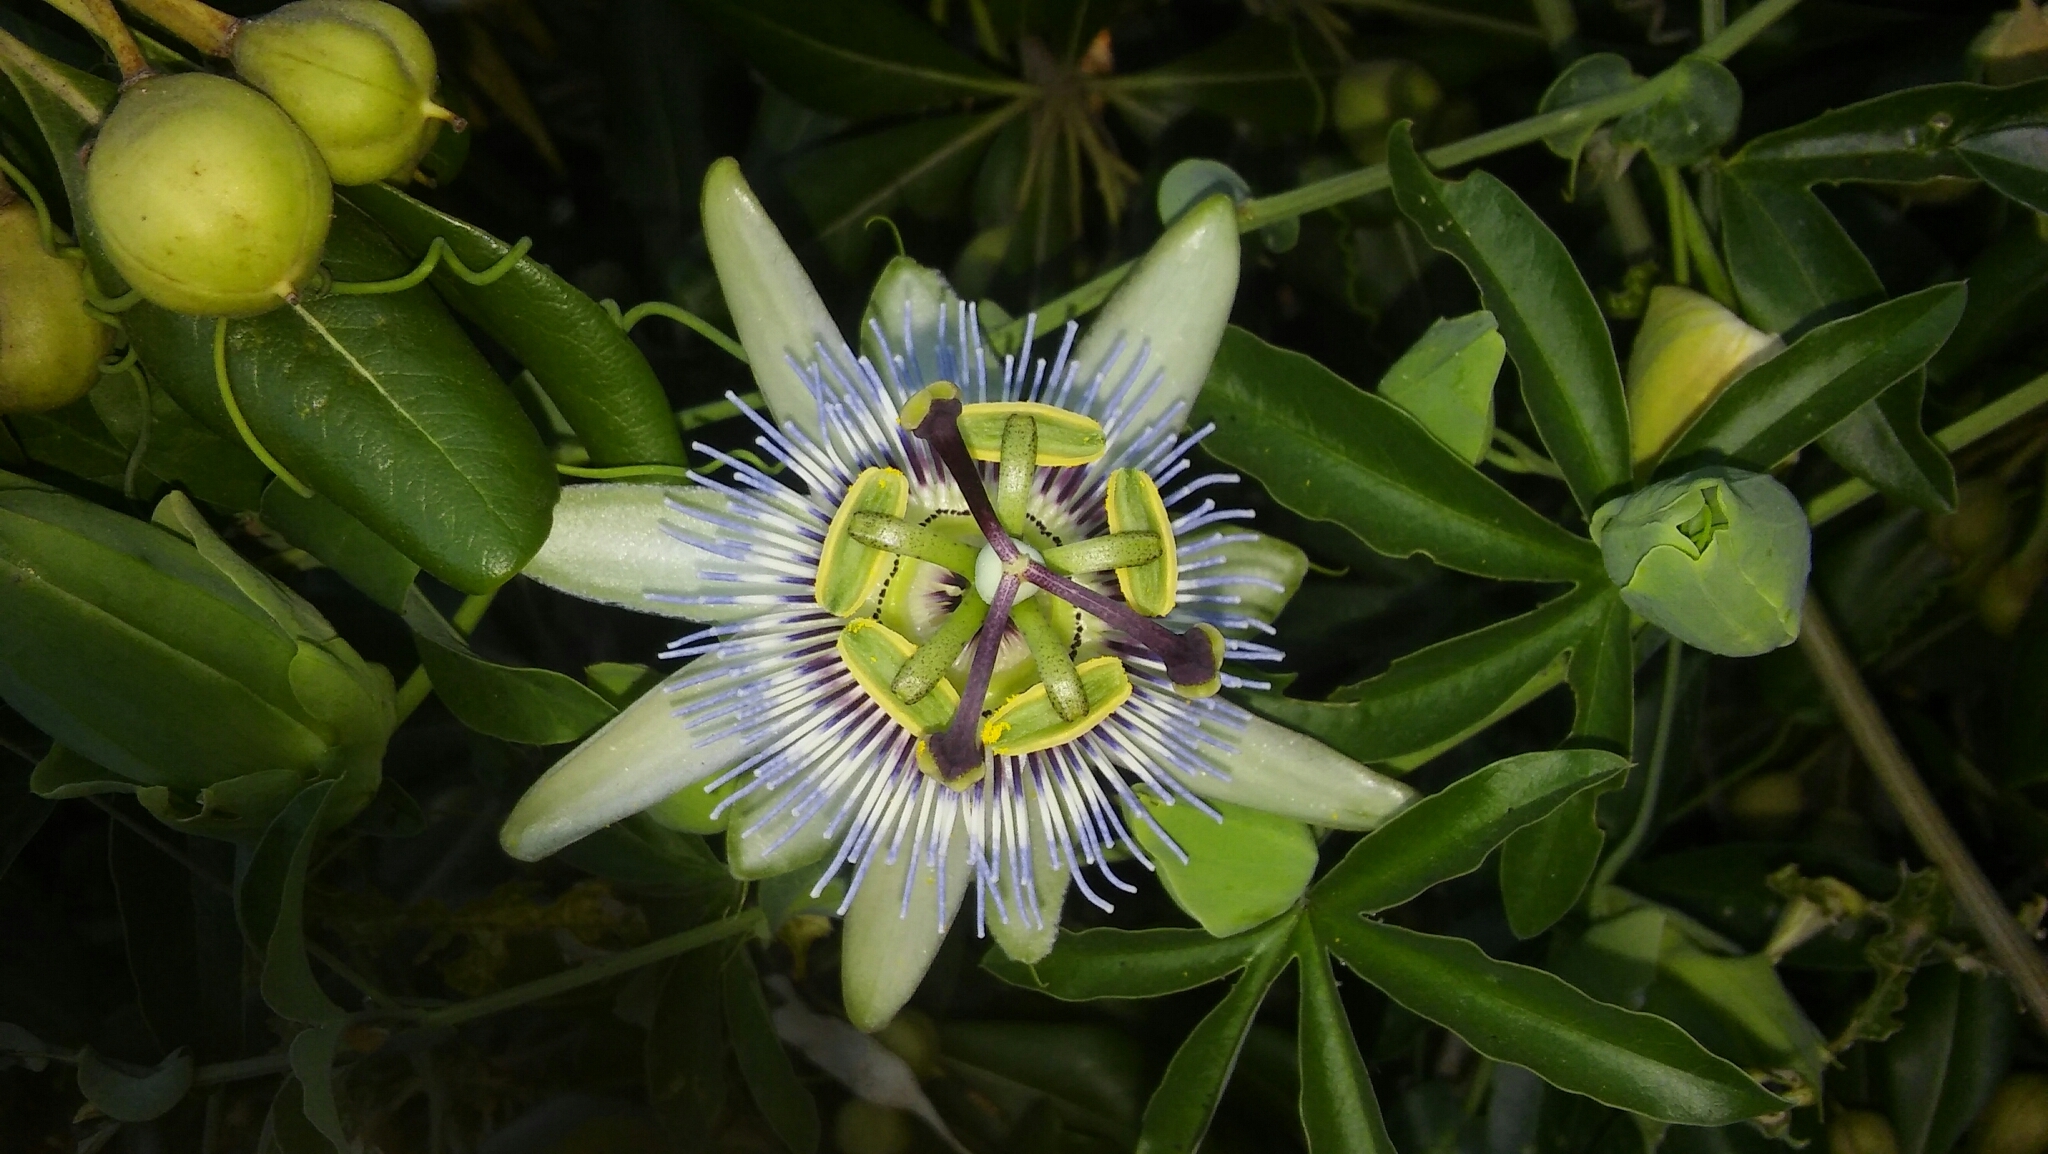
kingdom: Plantae
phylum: Tracheophyta
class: Magnoliopsida
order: Malpighiales
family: Passifloraceae
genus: Passiflora
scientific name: Passiflora caerulea
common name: Blue passionflower
